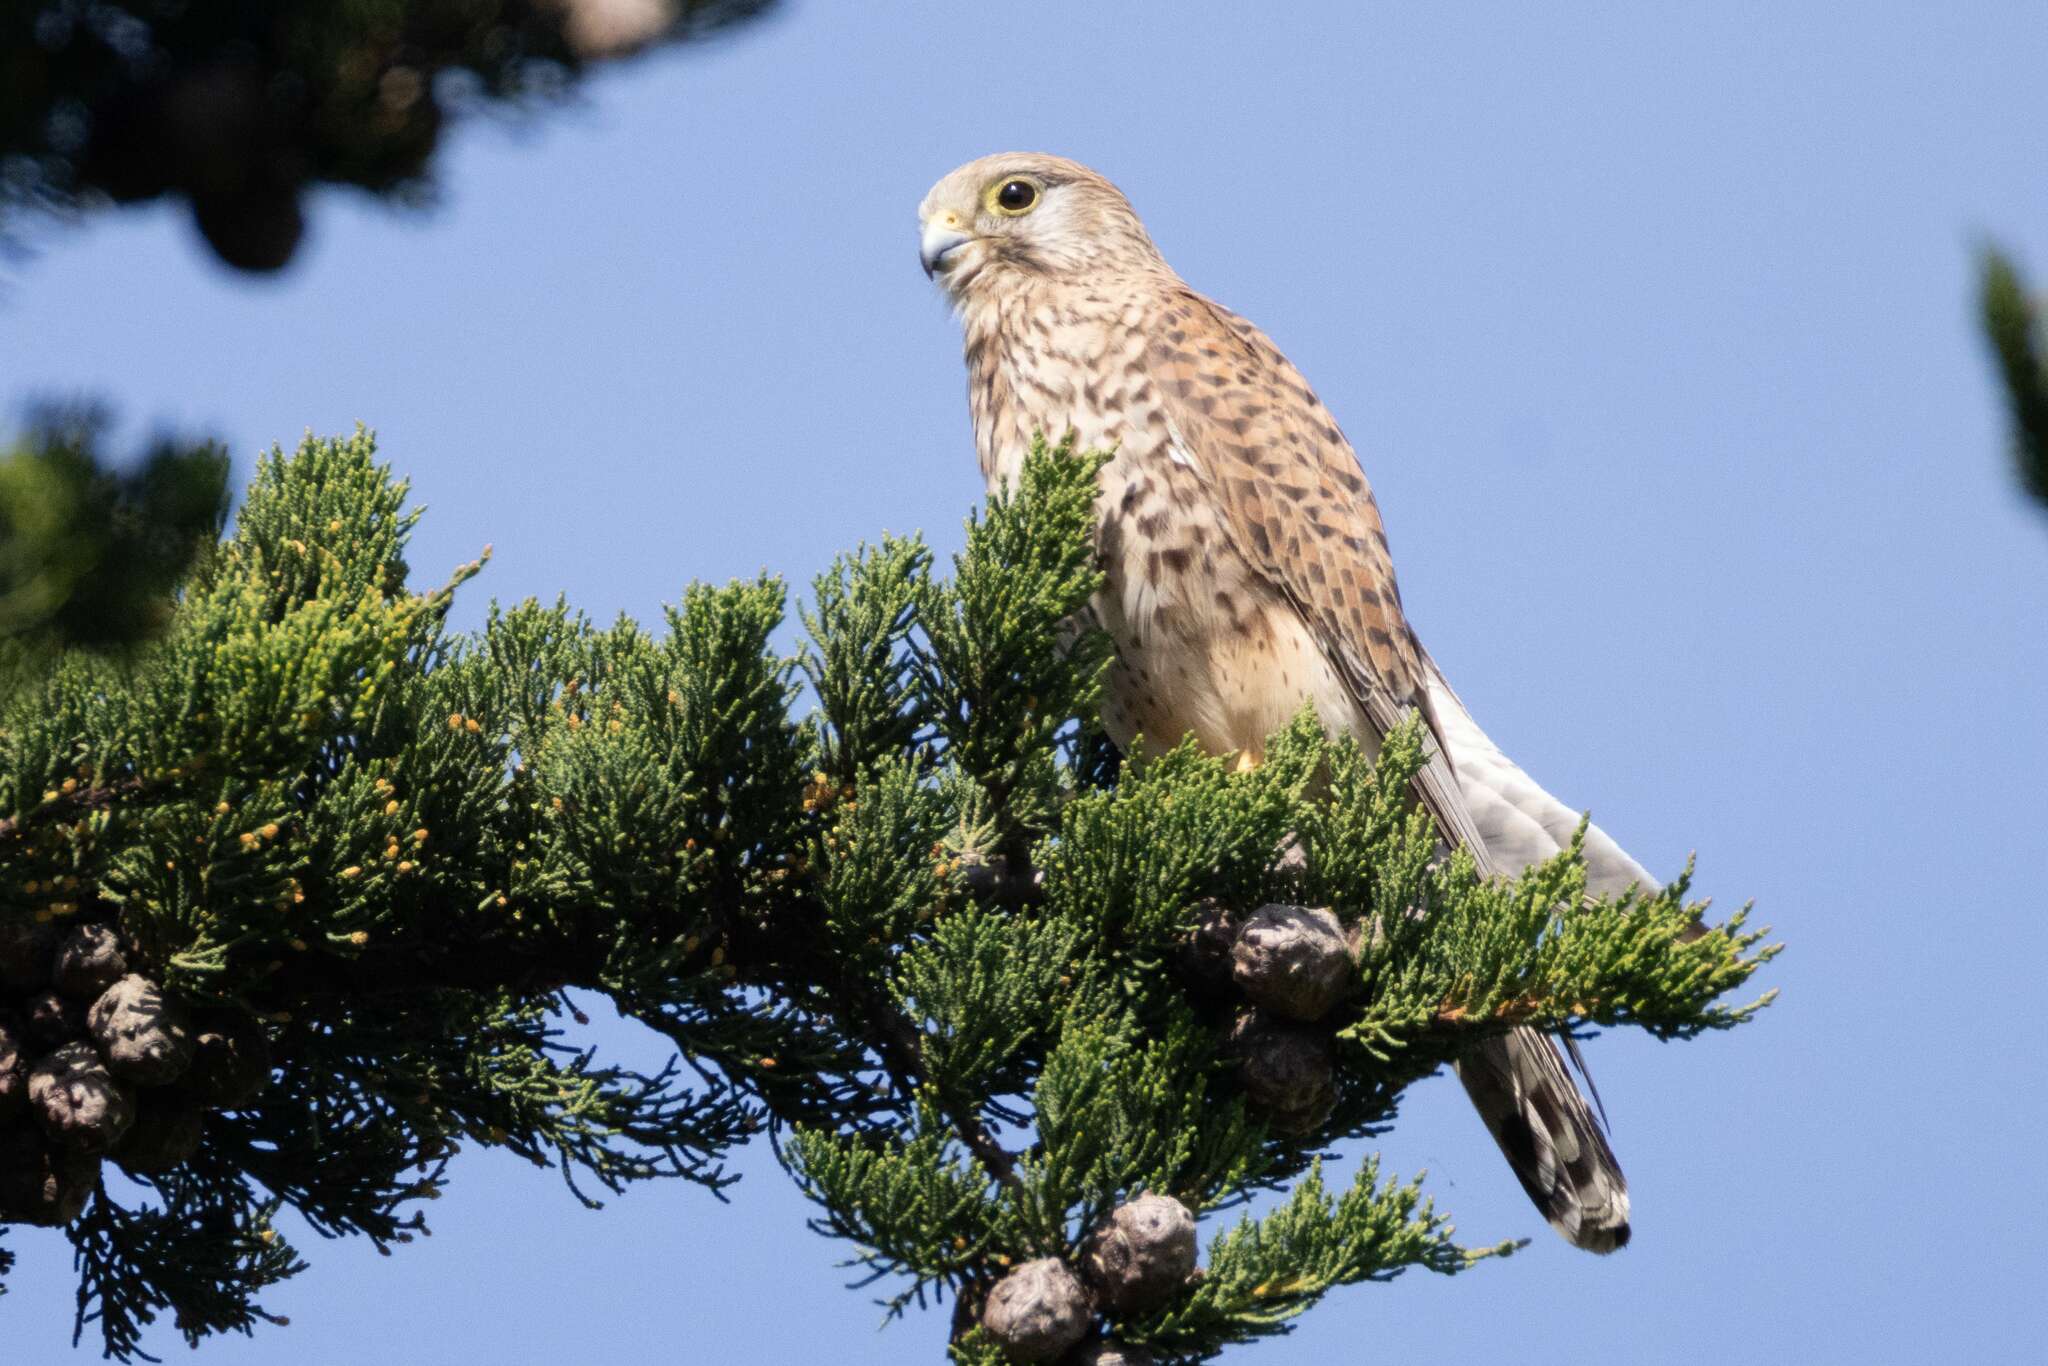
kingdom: Animalia
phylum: Chordata
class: Aves
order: Falconiformes
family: Falconidae
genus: Falco
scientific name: Falco tinnunculus
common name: Common kestrel
